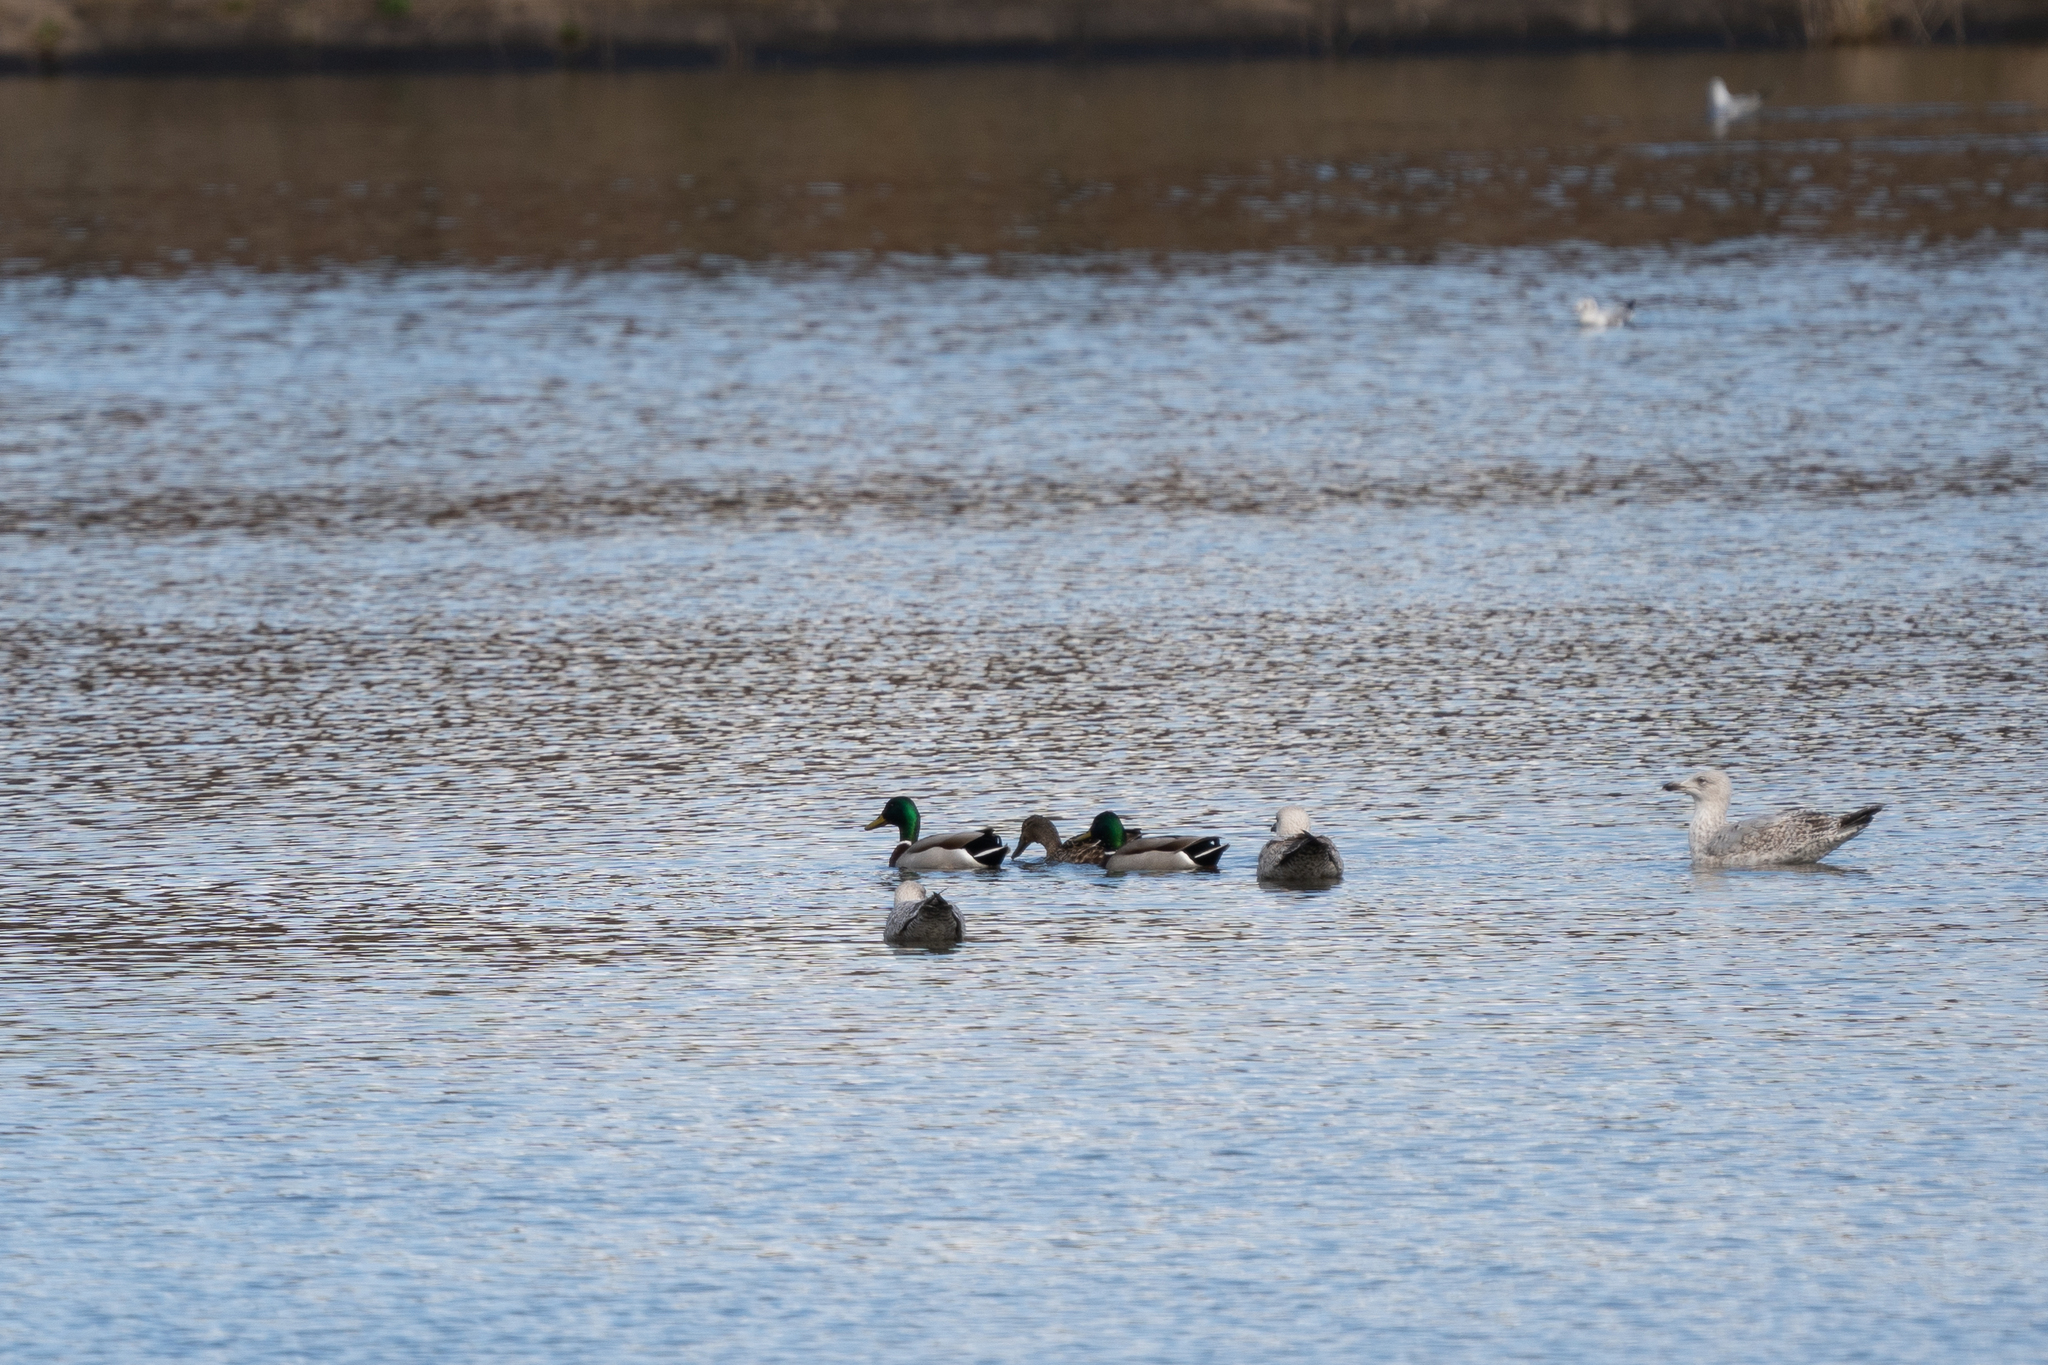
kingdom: Animalia
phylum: Chordata
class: Aves
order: Anseriformes
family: Anatidae
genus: Anas
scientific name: Anas platyrhynchos
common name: Mallard
